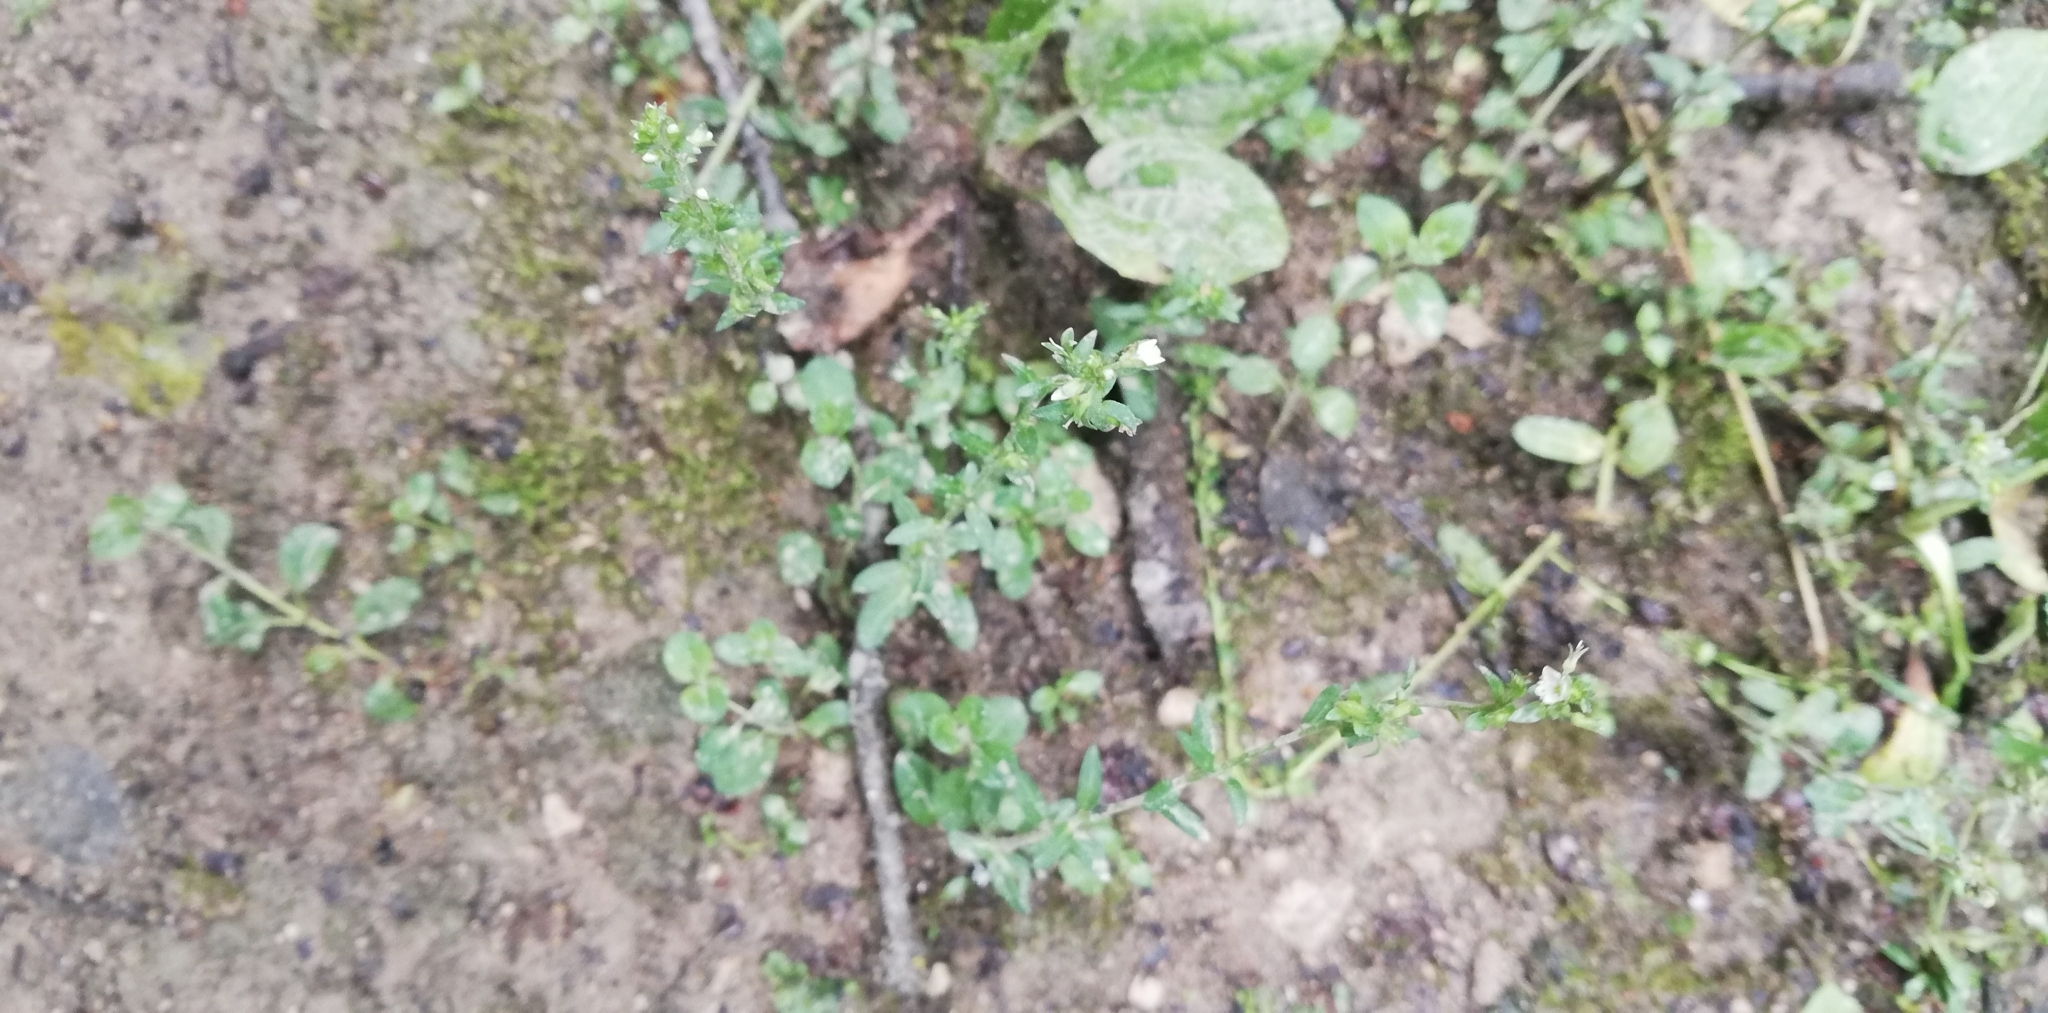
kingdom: Plantae
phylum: Tracheophyta
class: Magnoliopsida
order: Lamiales
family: Plantaginaceae
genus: Veronica
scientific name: Veronica serpyllifolia
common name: Thyme-leaved speedwell
